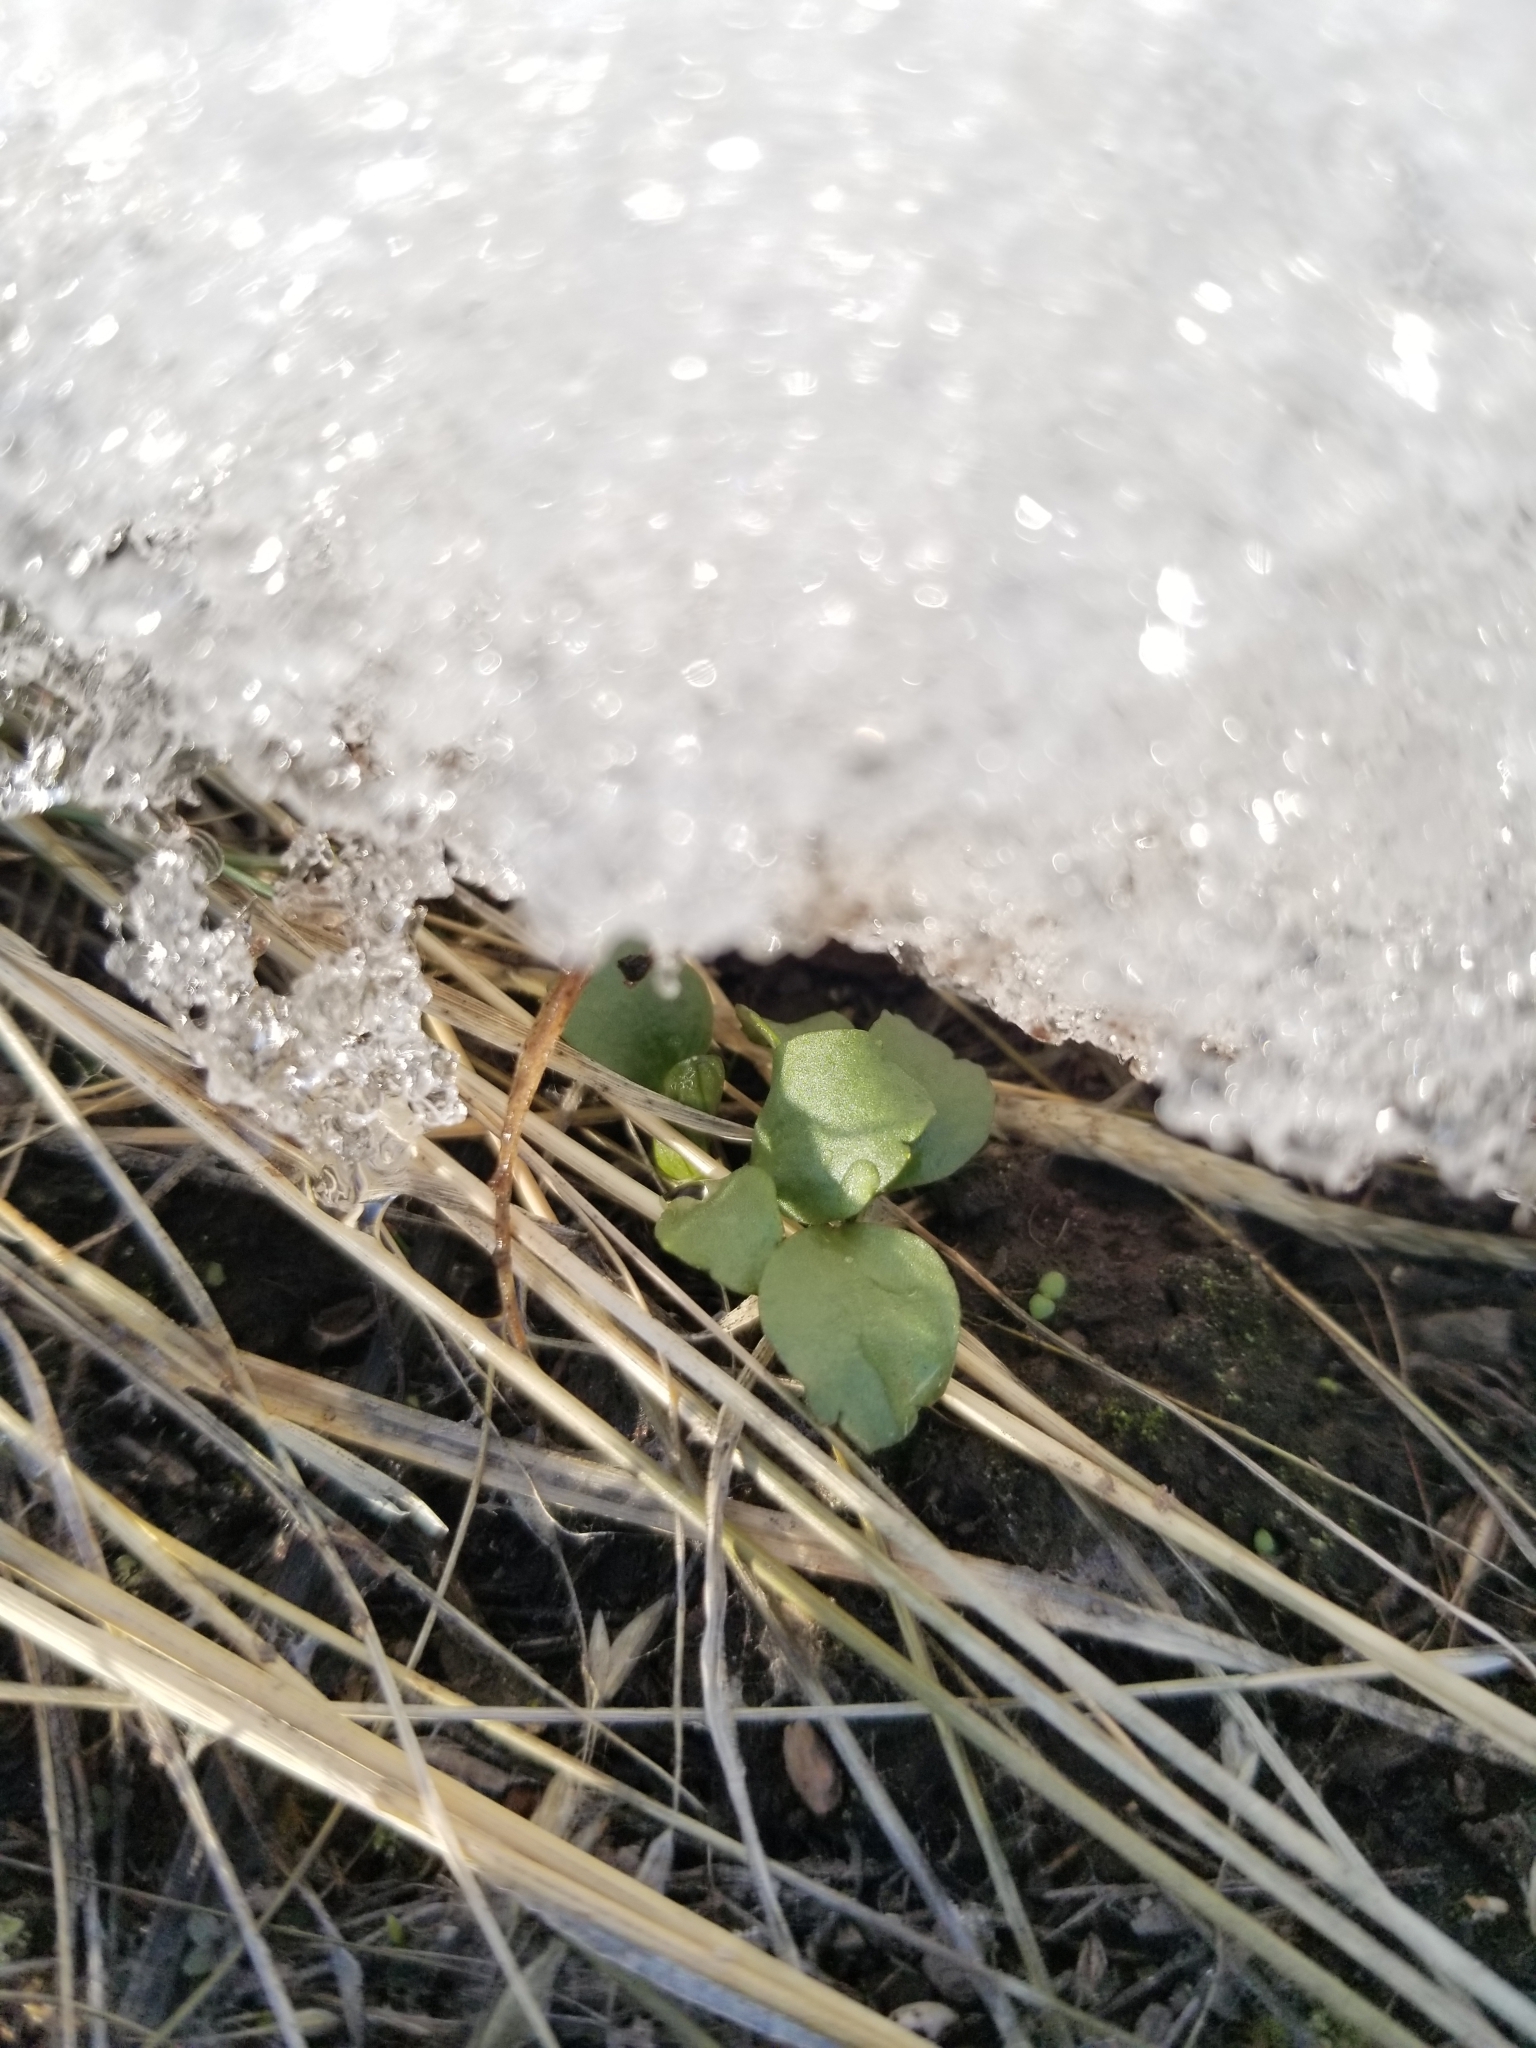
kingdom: Plantae
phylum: Tracheophyta
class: Magnoliopsida
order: Ranunculales
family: Ranunculaceae
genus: Ranunculus
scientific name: Ranunculus glaberrimus
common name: Sagebrush buttercup
